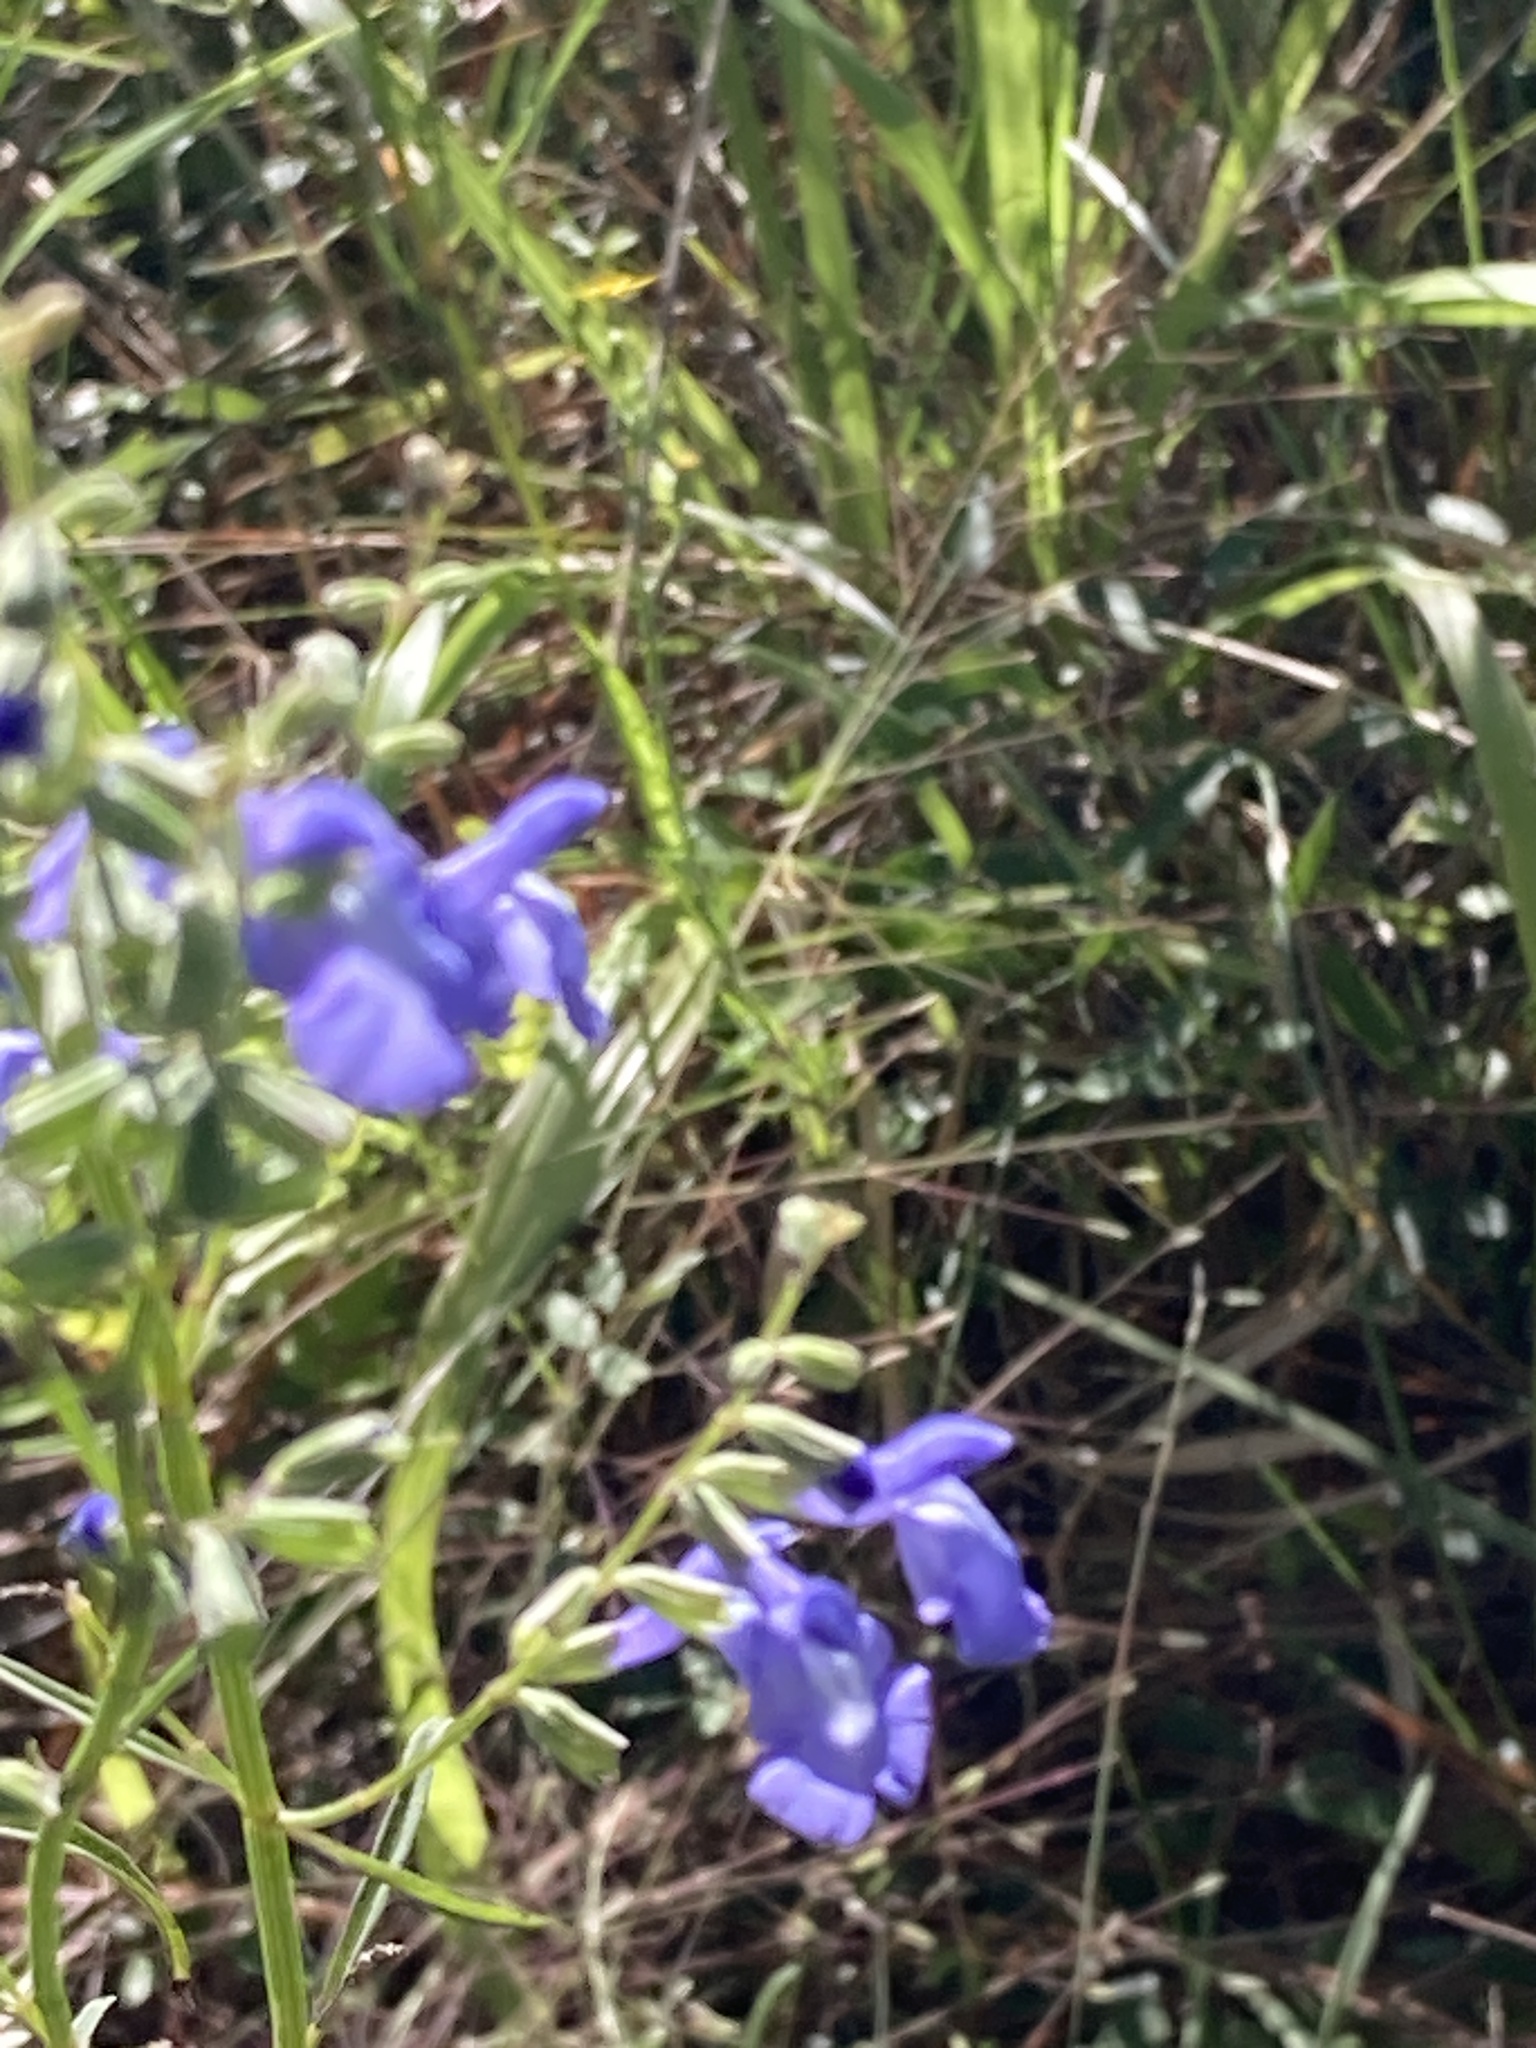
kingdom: Plantae
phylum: Tracheophyta
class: Magnoliopsida
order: Lamiales
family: Lamiaceae
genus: Salvia
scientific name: Salvia azurea
